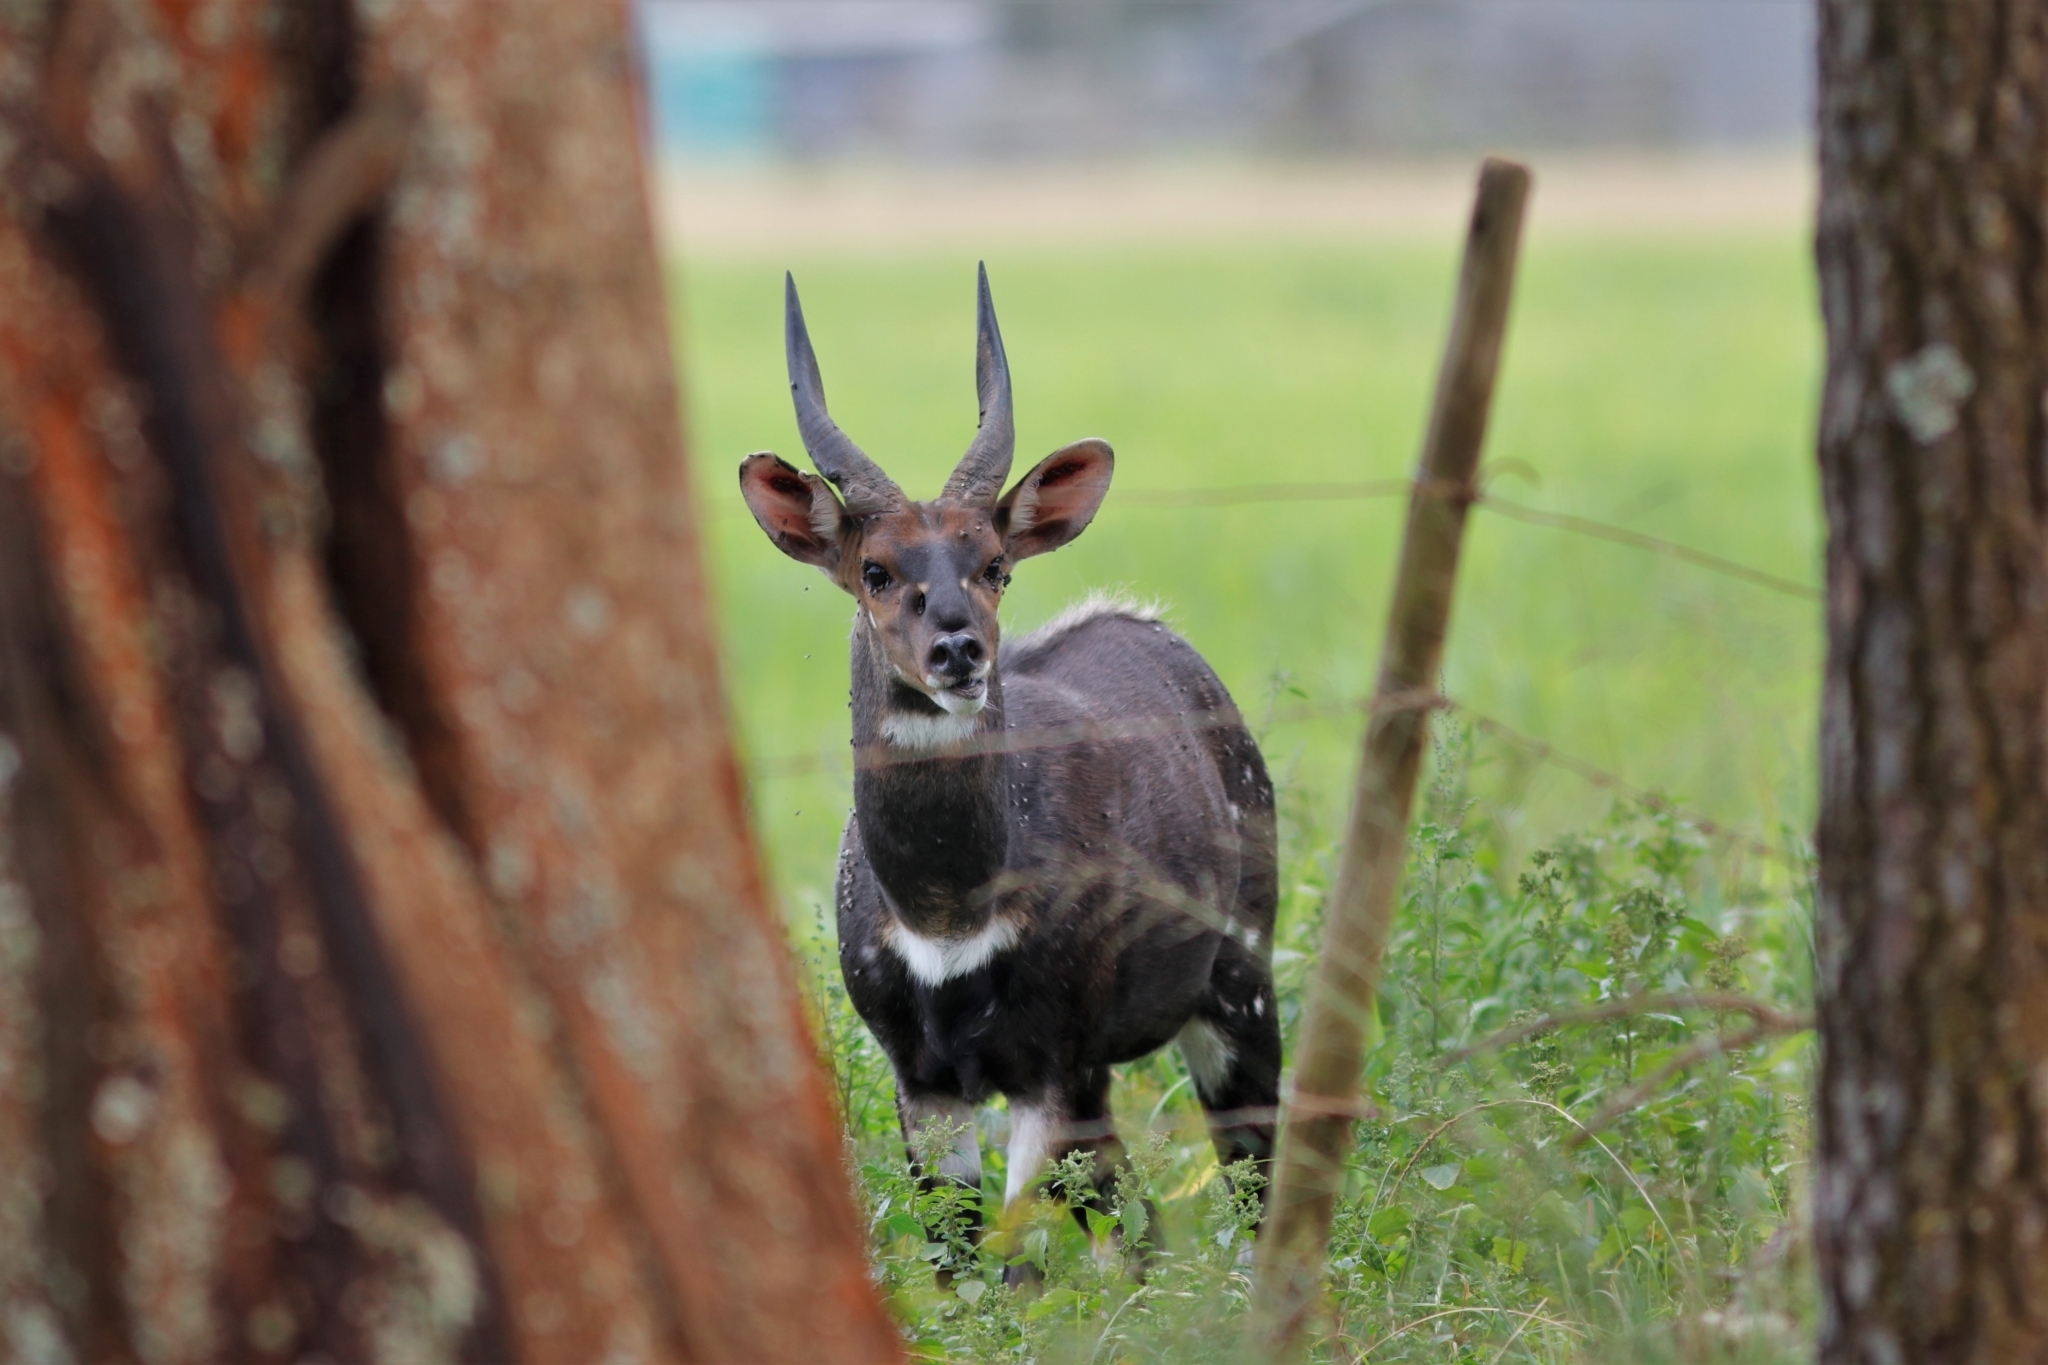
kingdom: Animalia
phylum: Chordata
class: Mammalia
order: Artiodactyla
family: Bovidae
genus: Tragelaphus
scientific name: Tragelaphus scriptus
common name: Bushbuck
